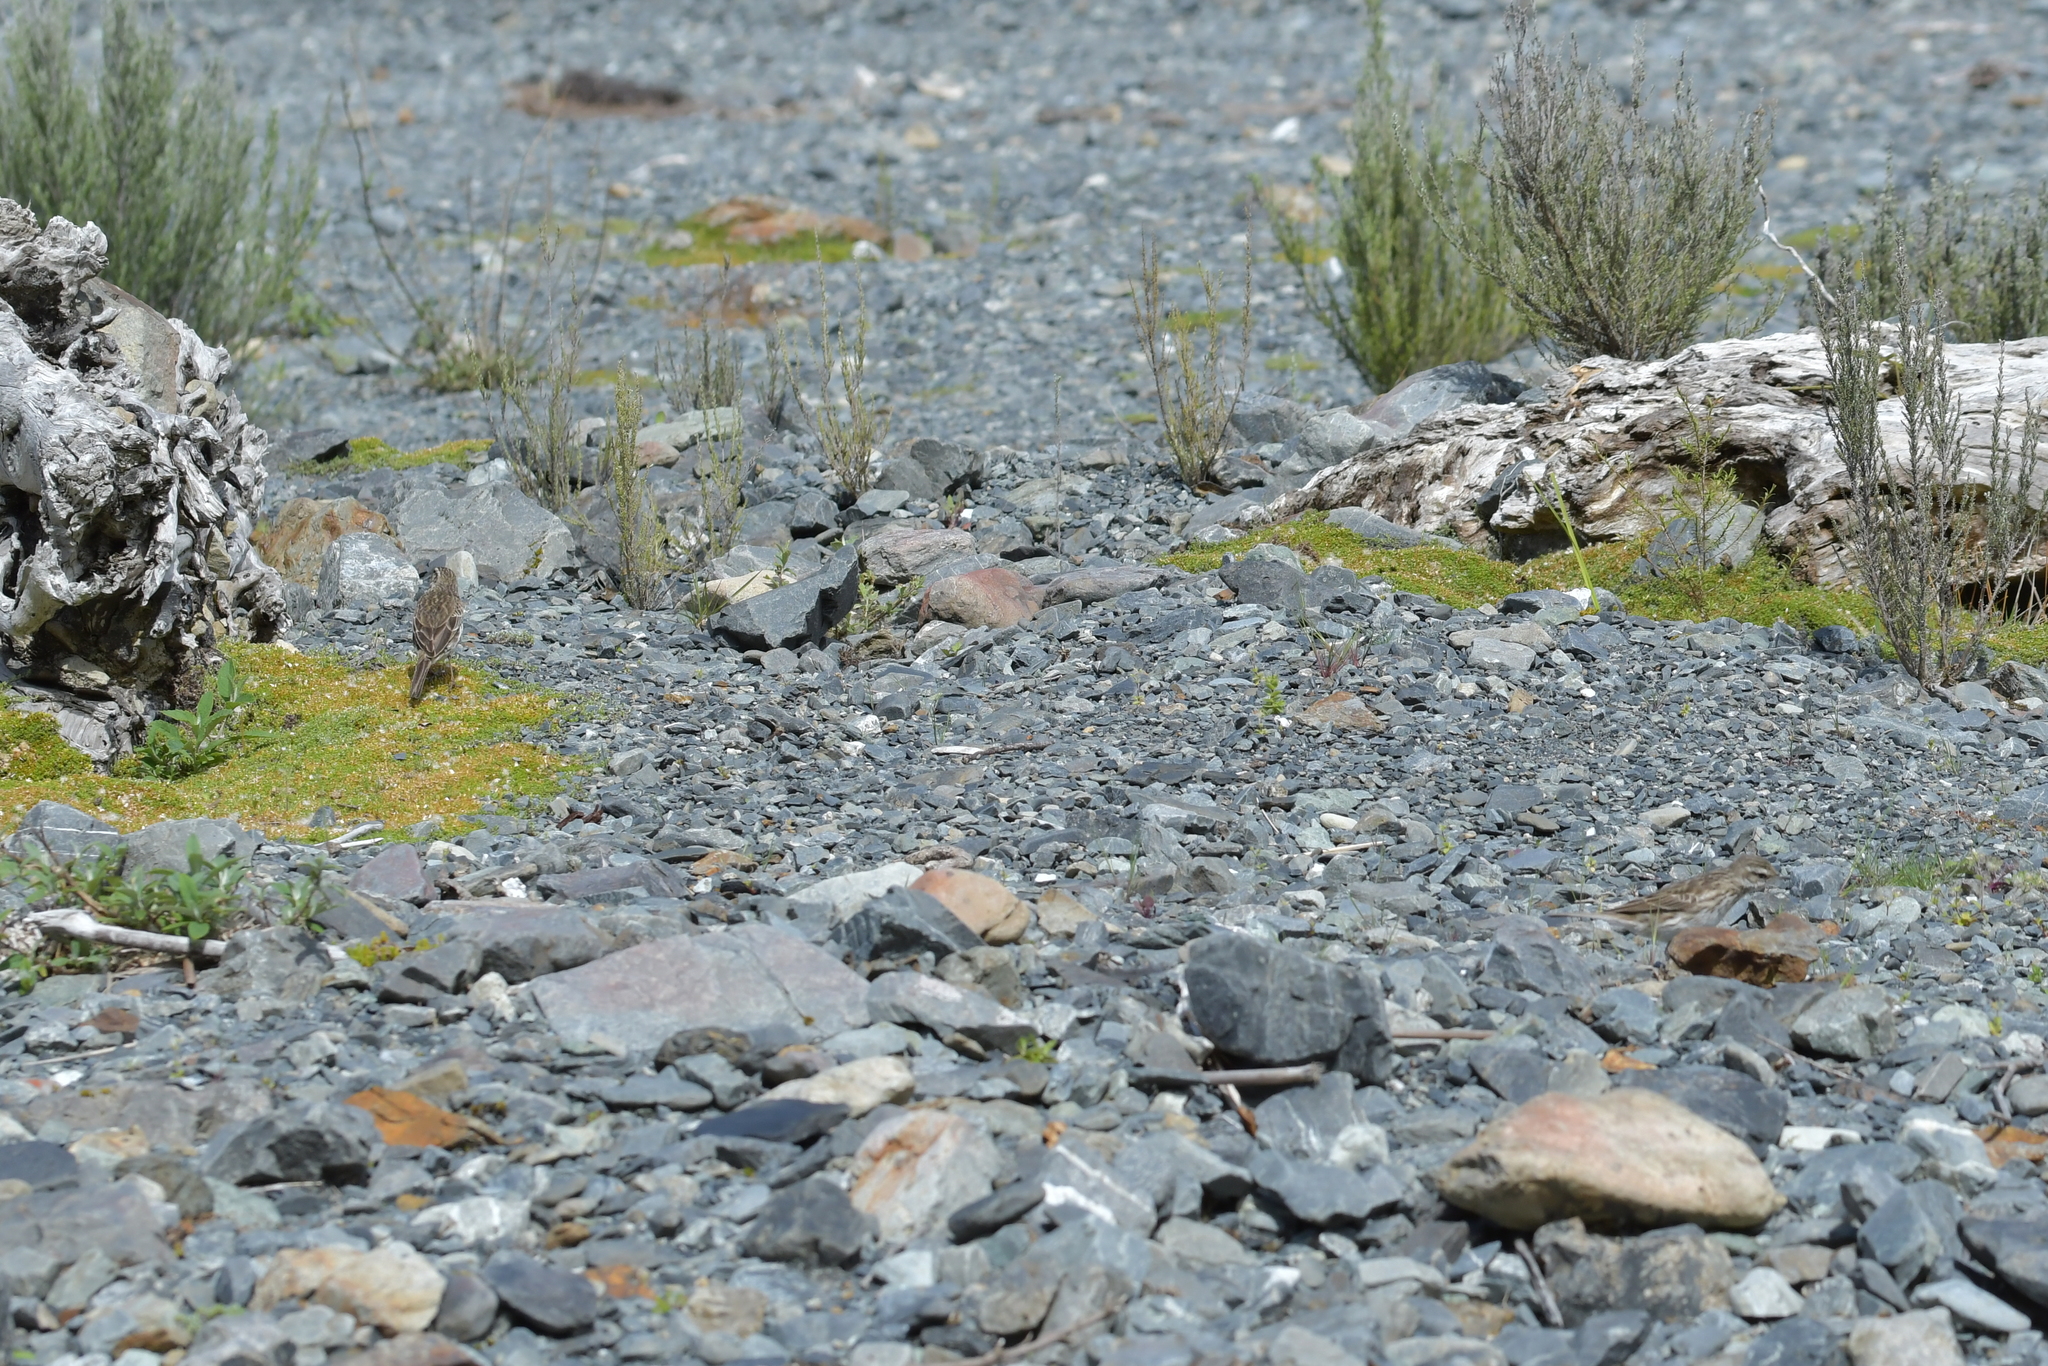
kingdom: Animalia
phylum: Chordata
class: Aves
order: Passeriformes
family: Motacillidae
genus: Anthus
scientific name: Anthus novaeseelandiae
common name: New zealand pipit
